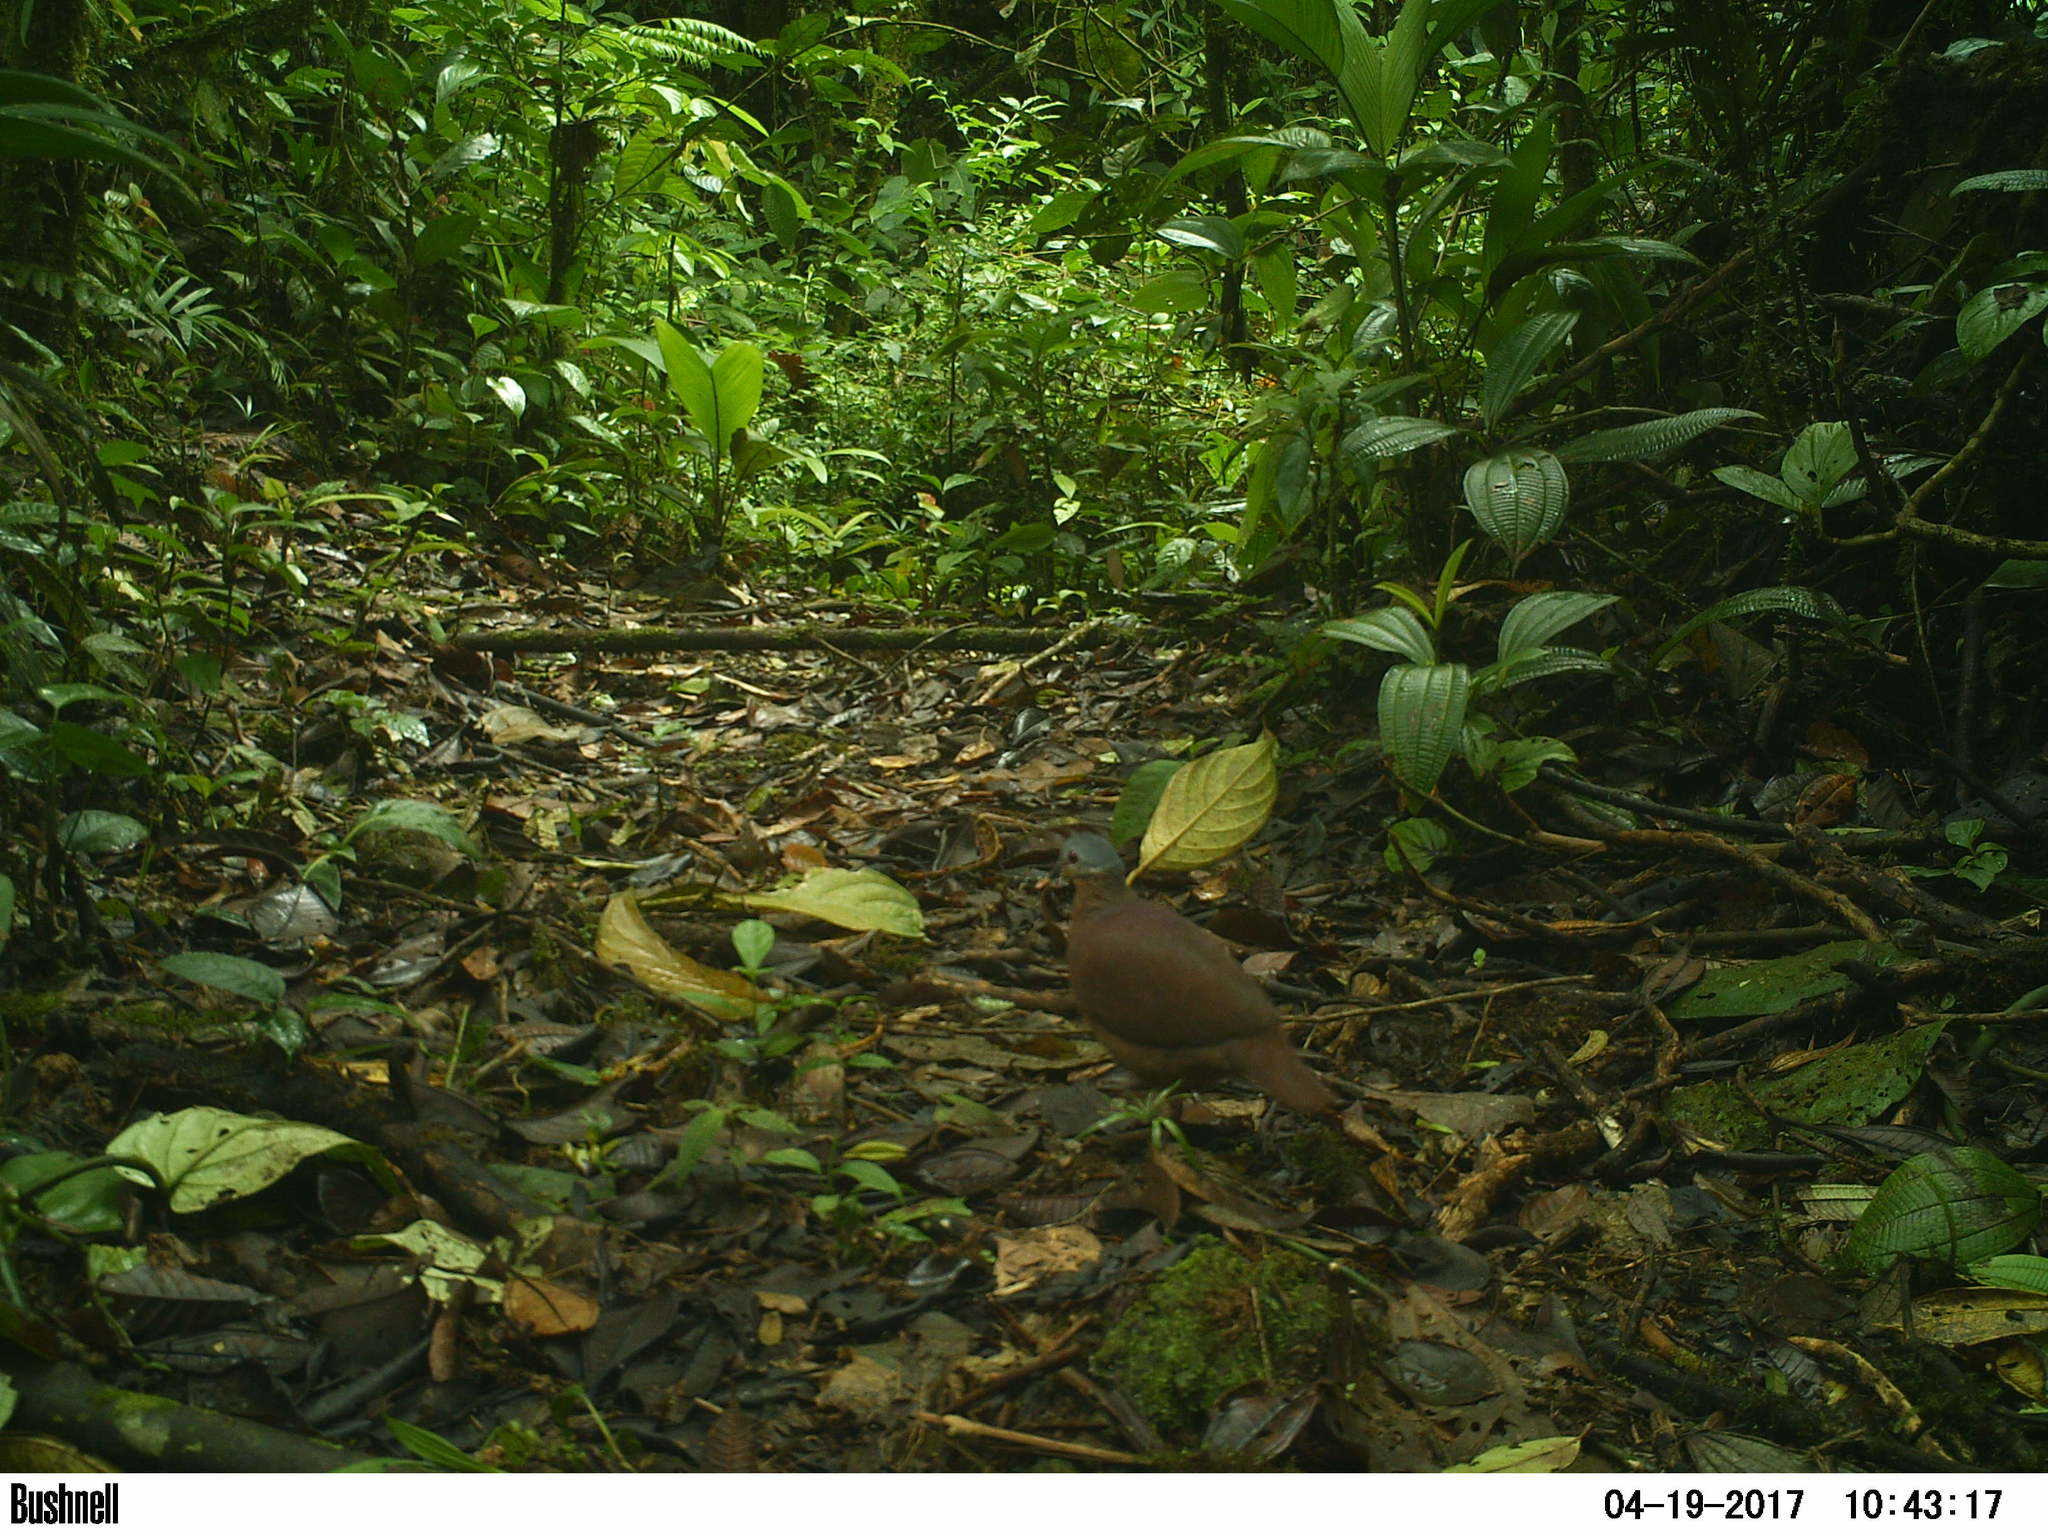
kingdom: Animalia
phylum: Chordata
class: Aves
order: Columbiformes
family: Columbidae
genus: Zentrygon
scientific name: Zentrygon chiriquensis
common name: Chiriqui quail-dove
